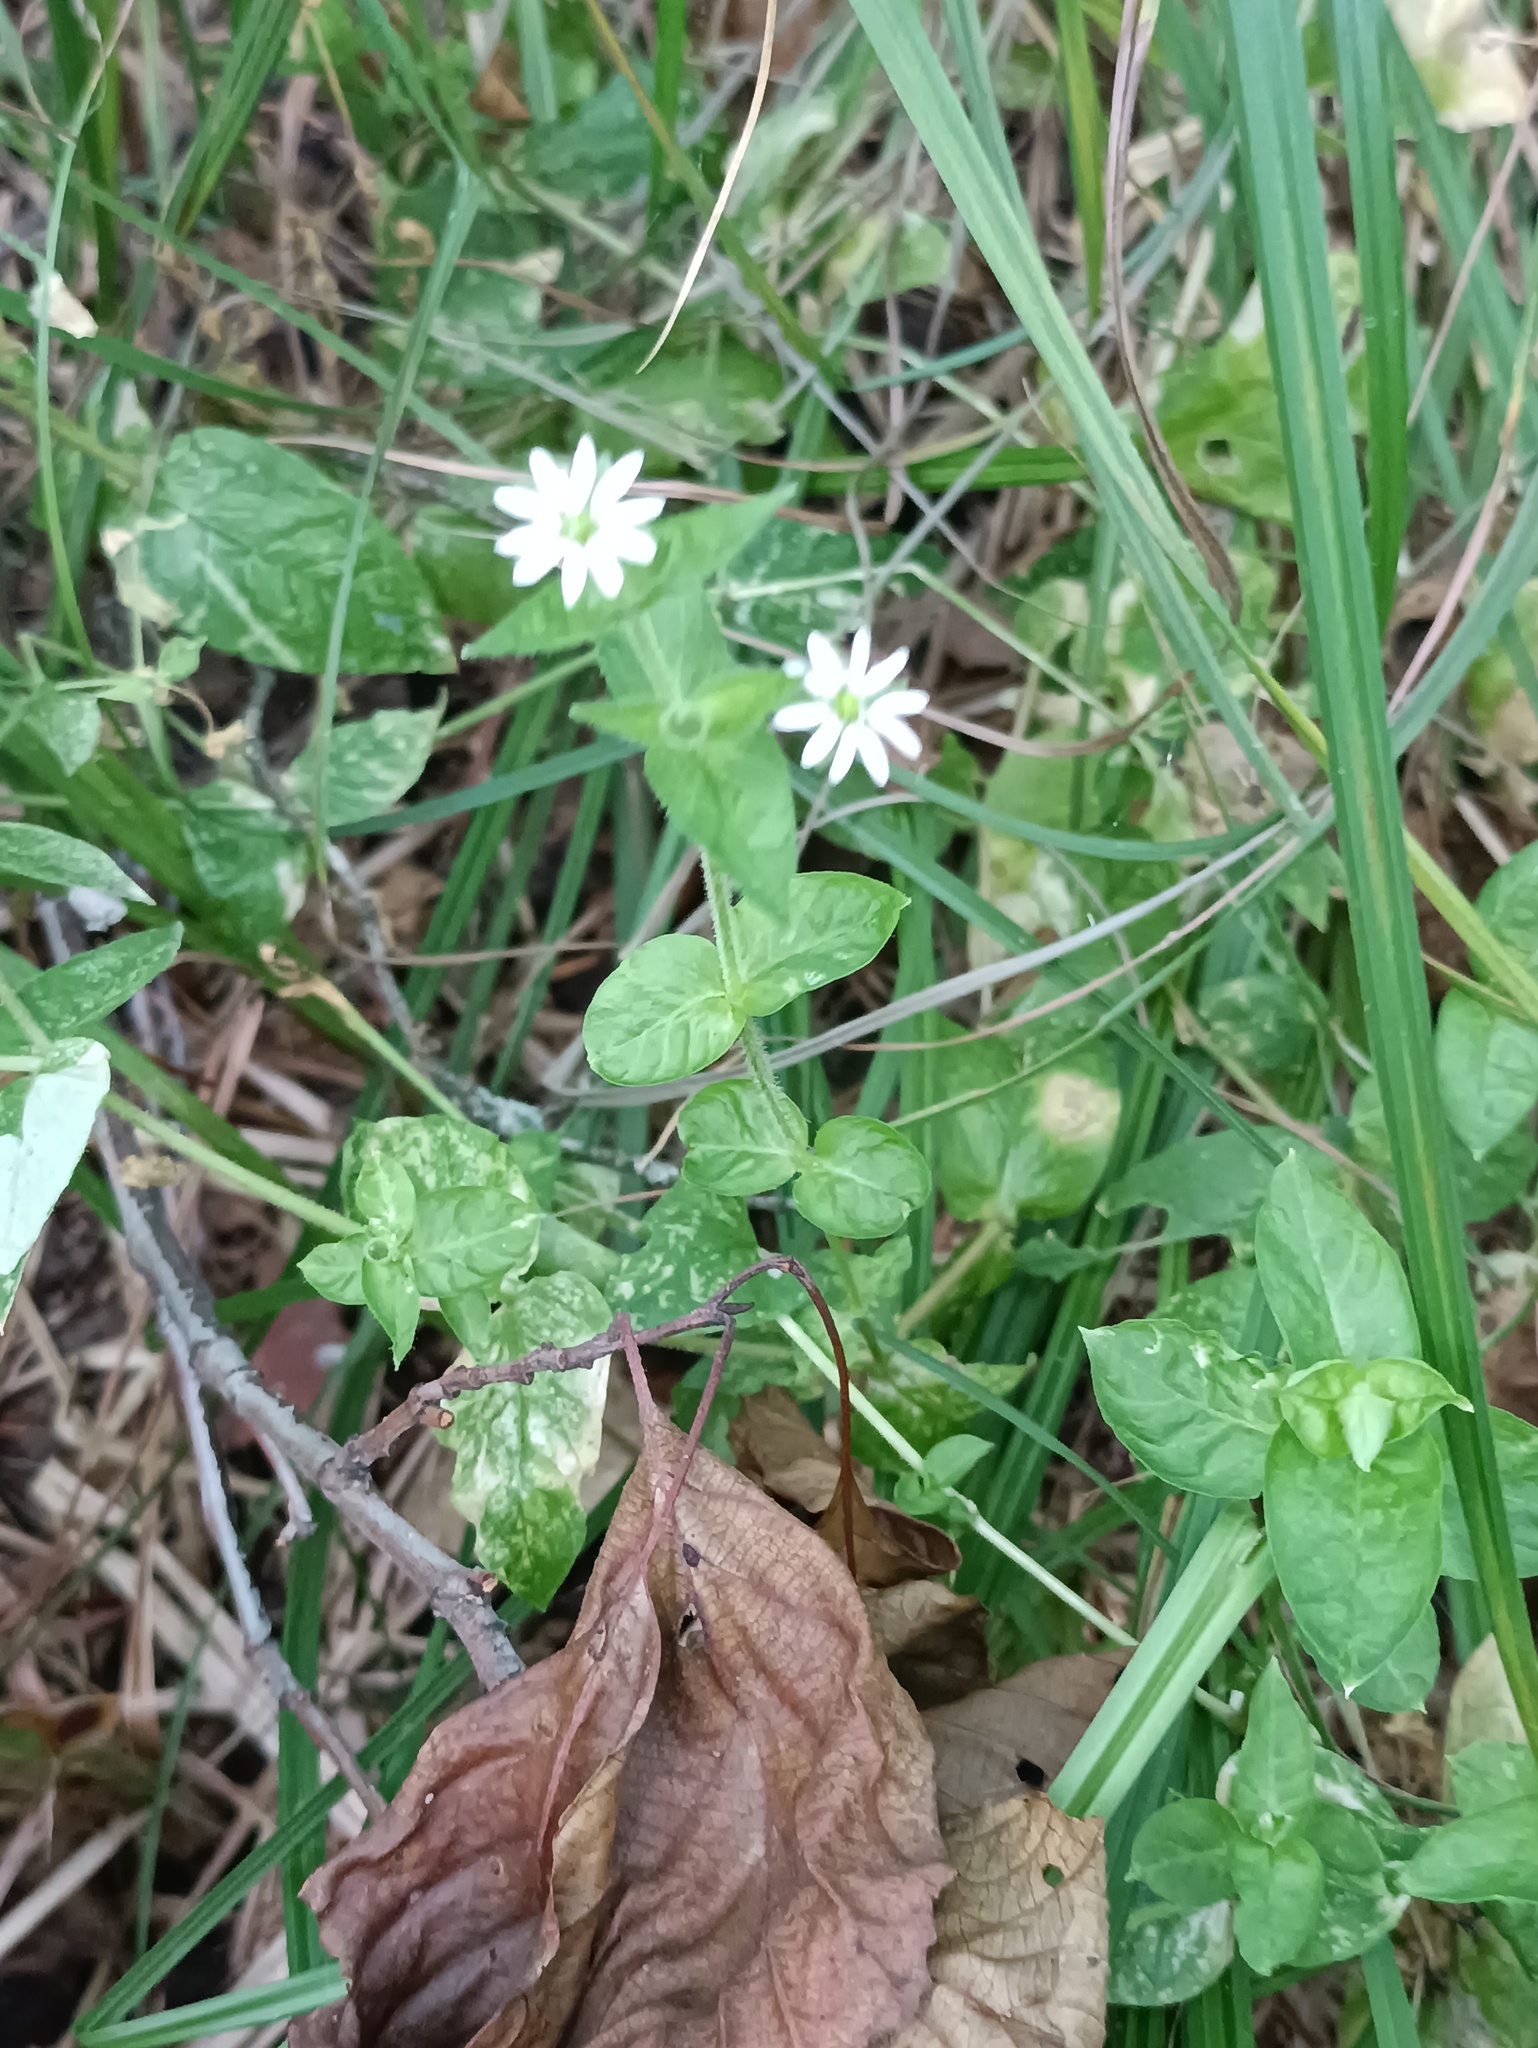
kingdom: Plantae
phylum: Tracheophyta
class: Magnoliopsida
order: Caryophyllales
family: Caryophyllaceae
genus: Stellaria
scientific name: Stellaria aquatica
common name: Water chickweed
